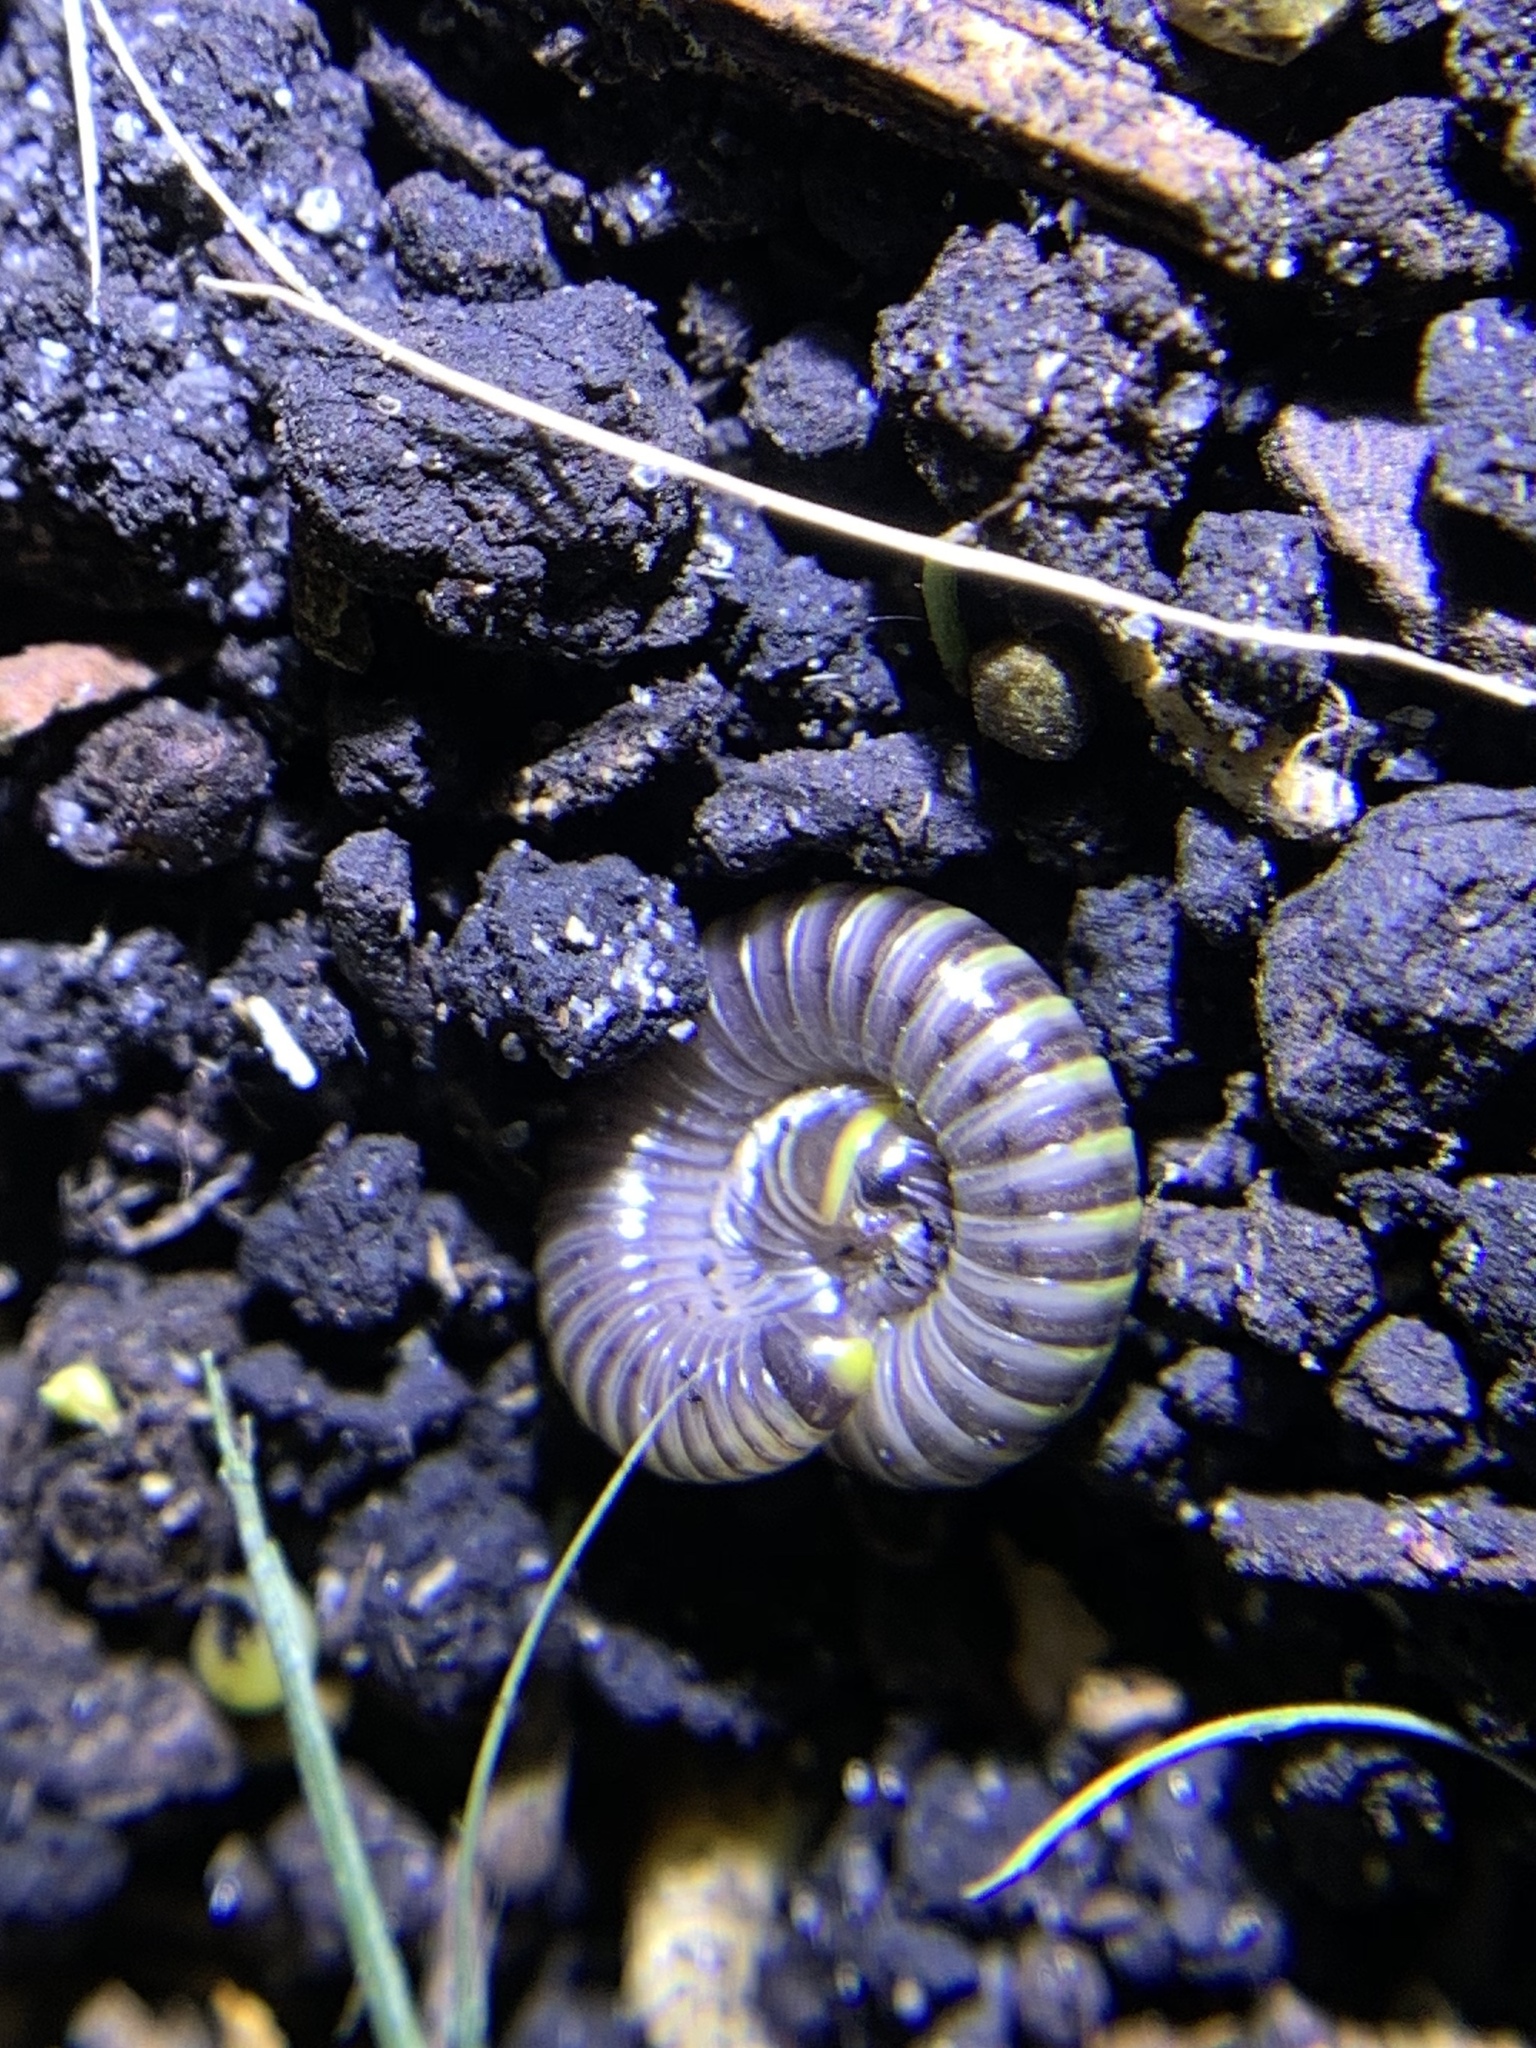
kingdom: Animalia
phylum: Arthropoda
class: Diplopoda
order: Spirobolida
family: Rhinocricidae
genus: Anadenobolus
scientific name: Anadenobolus monilicornis
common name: Caribbean millipede
